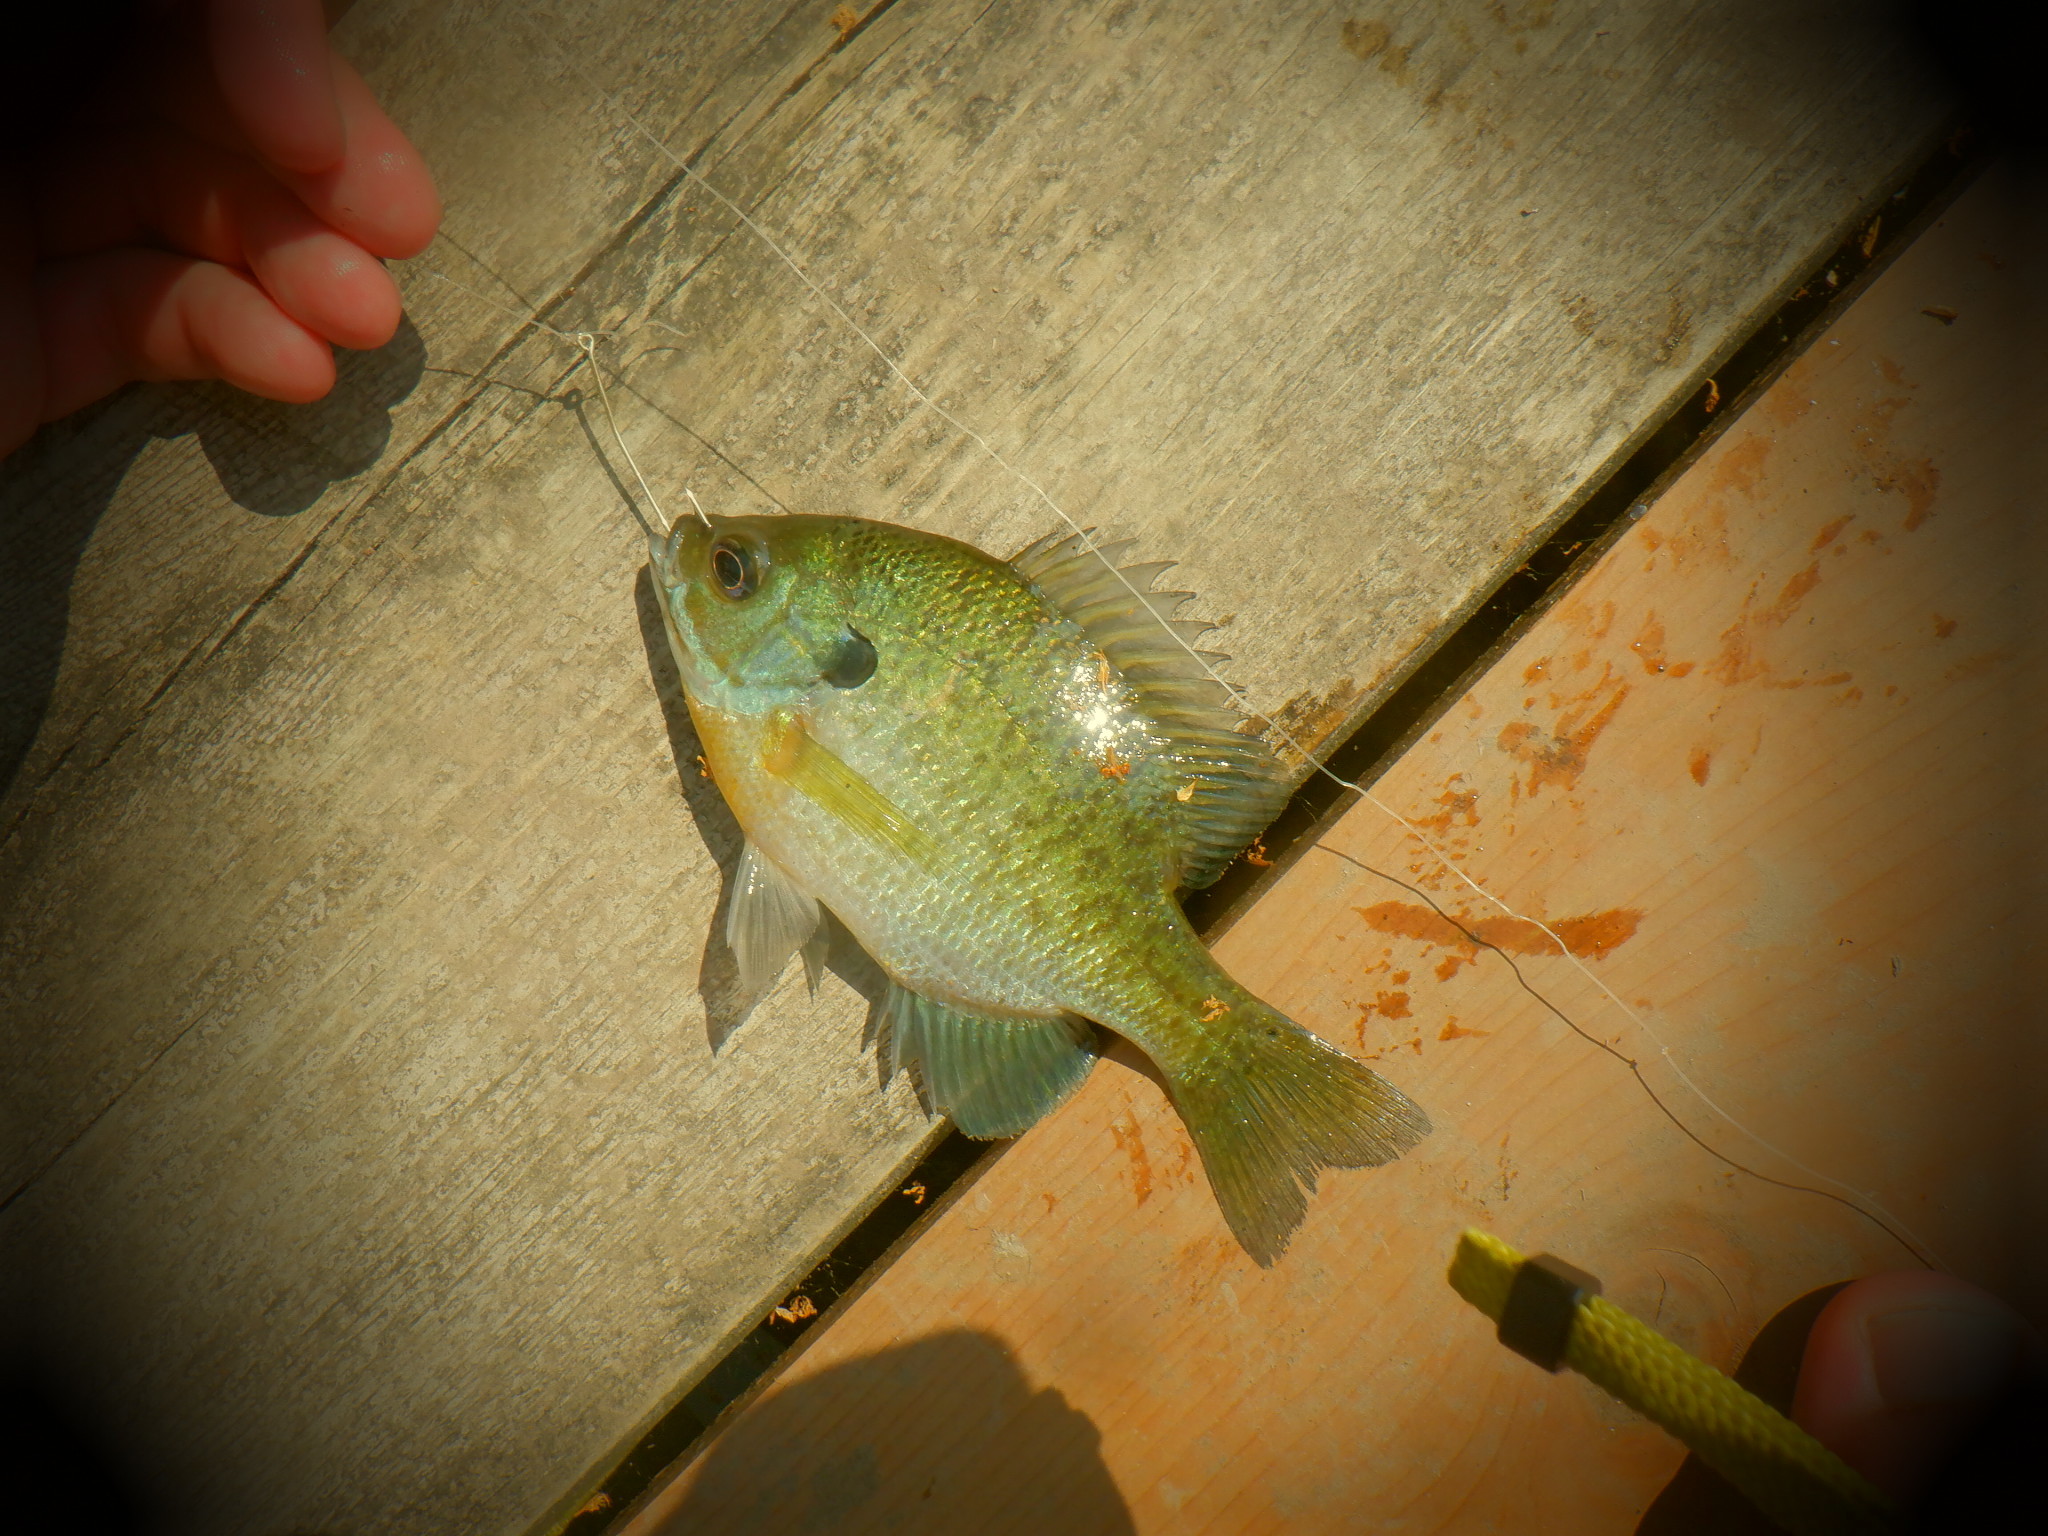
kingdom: Animalia
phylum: Chordata
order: Perciformes
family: Centrarchidae
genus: Lepomis
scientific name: Lepomis macrochirus
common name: Bluegill
